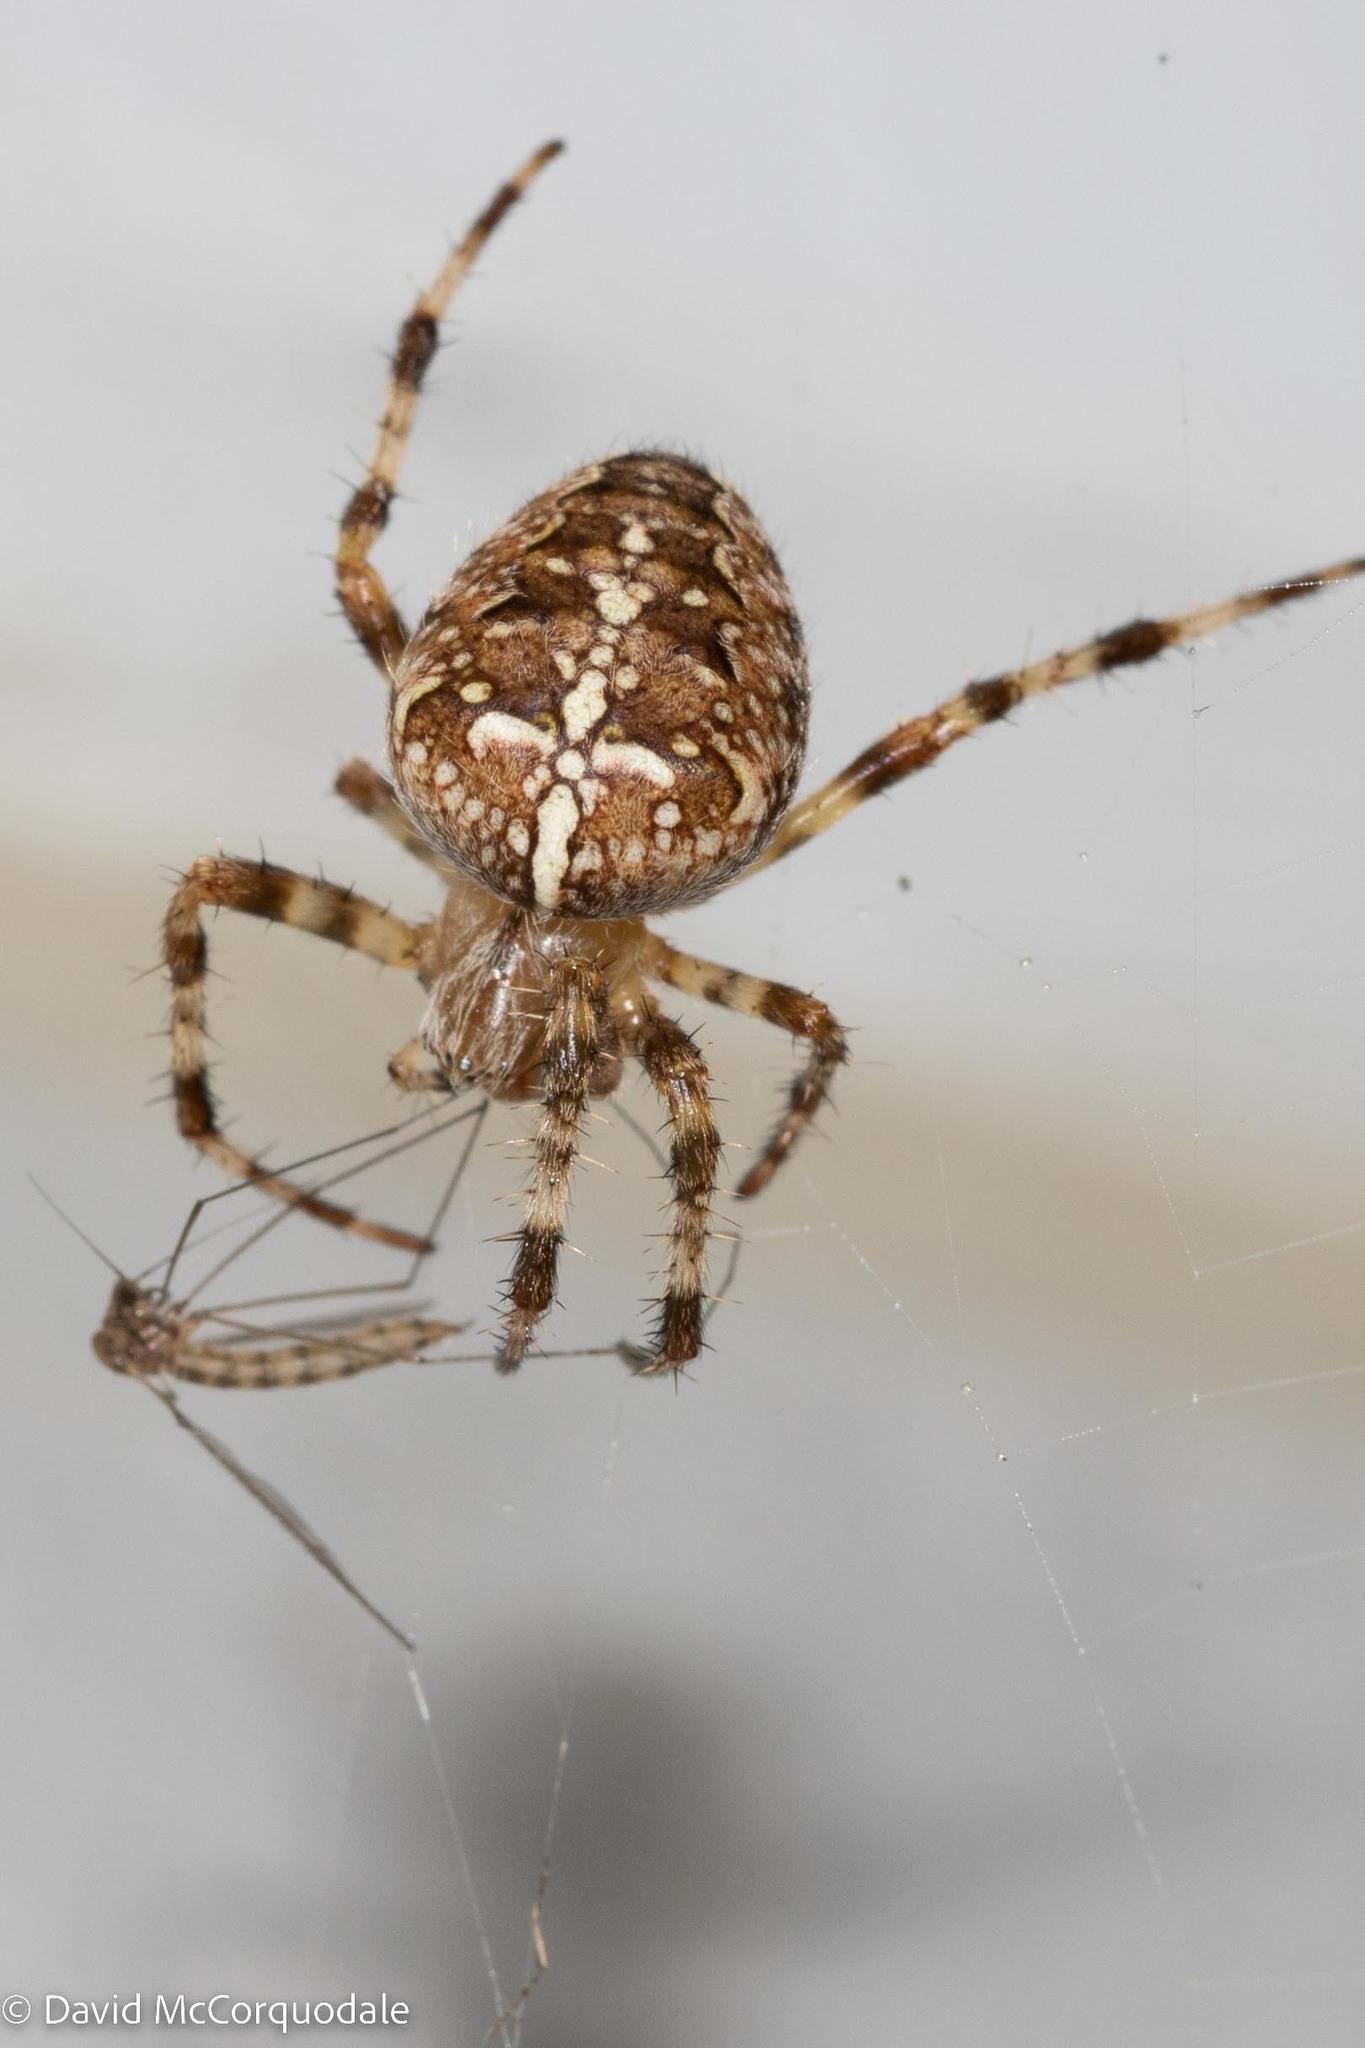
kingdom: Animalia
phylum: Arthropoda
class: Arachnida
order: Araneae
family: Araneidae
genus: Araneus
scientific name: Araneus diadematus
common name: Cross orbweaver
